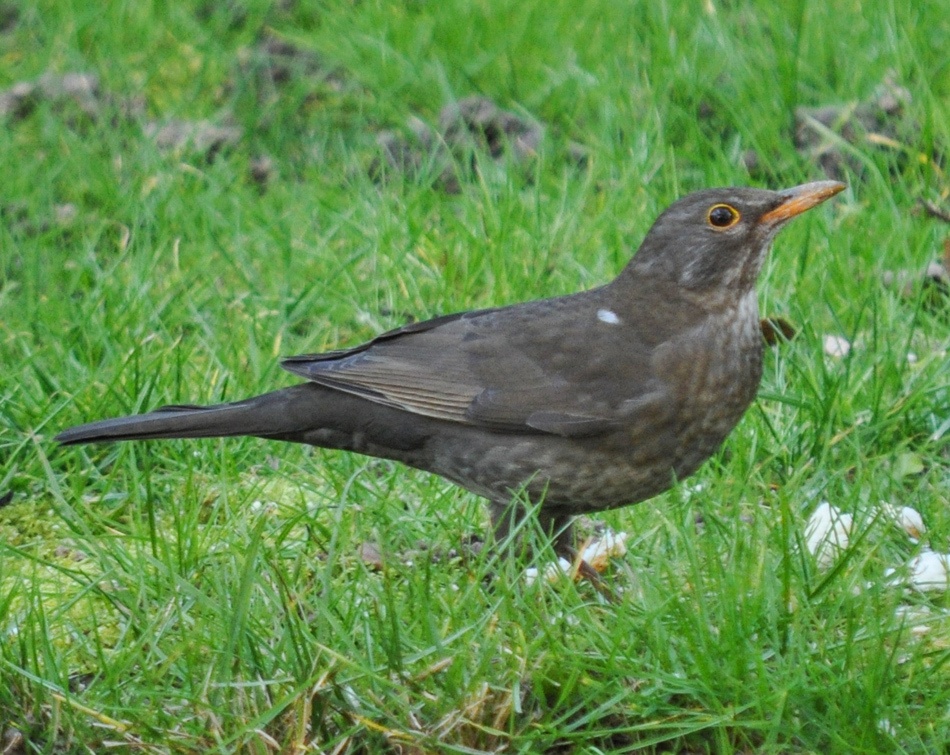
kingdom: Animalia
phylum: Chordata
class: Aves
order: Passeriformes
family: Turdidae
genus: Turdus
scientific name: Turdus merula
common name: Common blackbird
